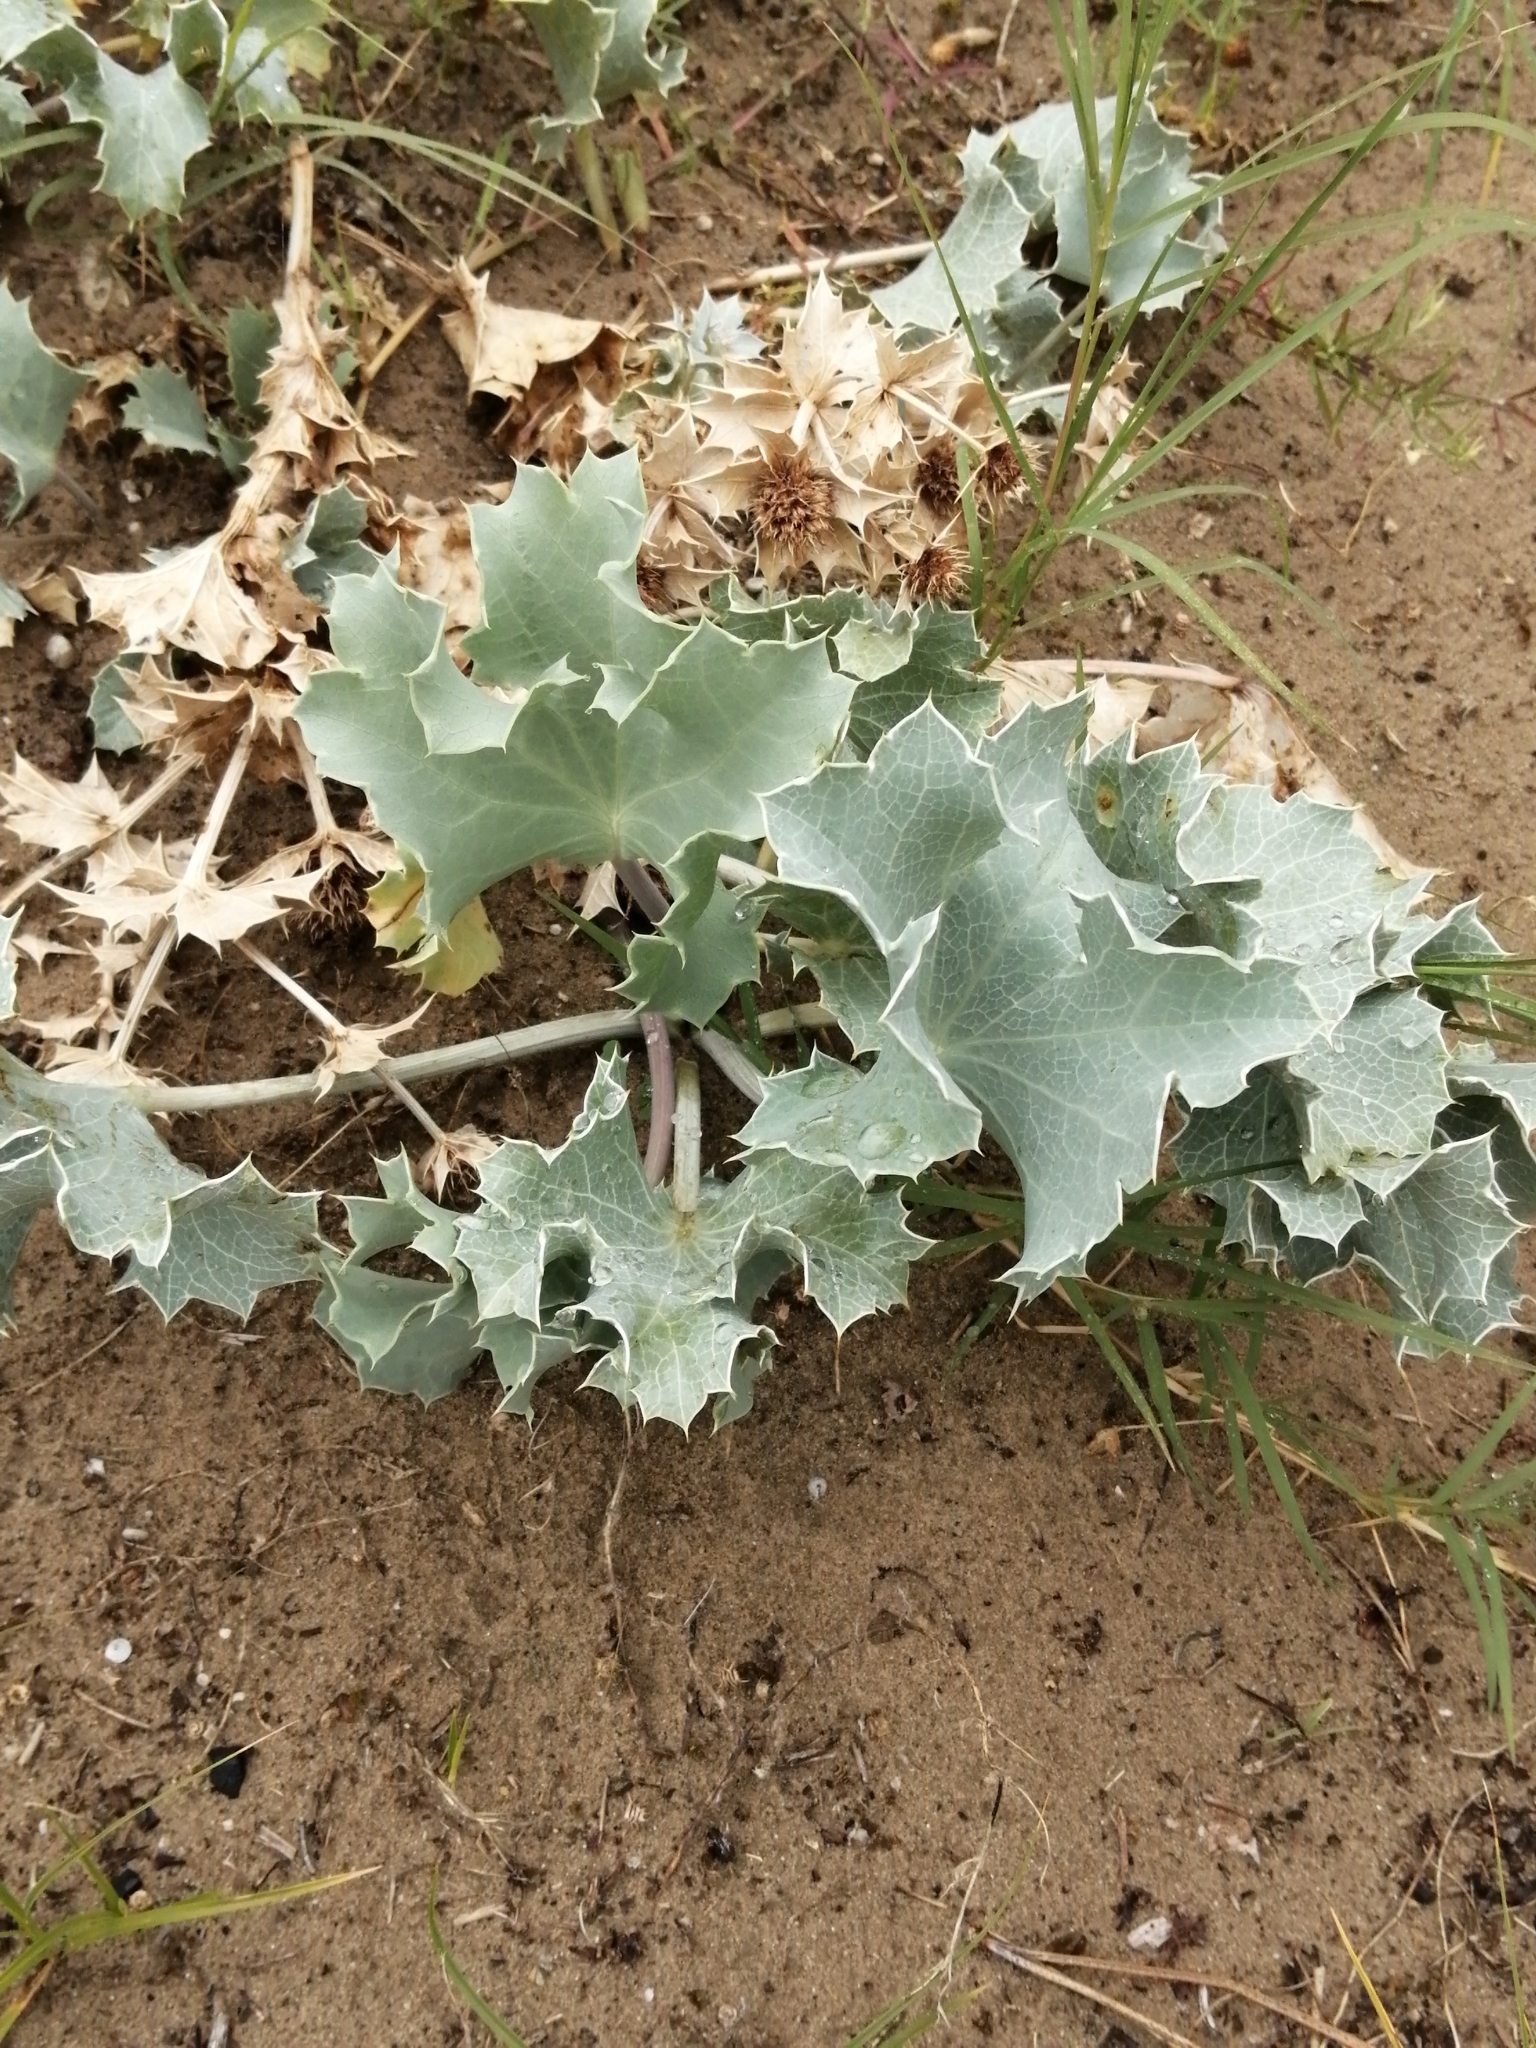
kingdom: Plantae
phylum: Tracheophyta
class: Magnoliopsida
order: Apiales
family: Apiaceae
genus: Eryngium
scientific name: Eryngium maritimum
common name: Sea-holly
